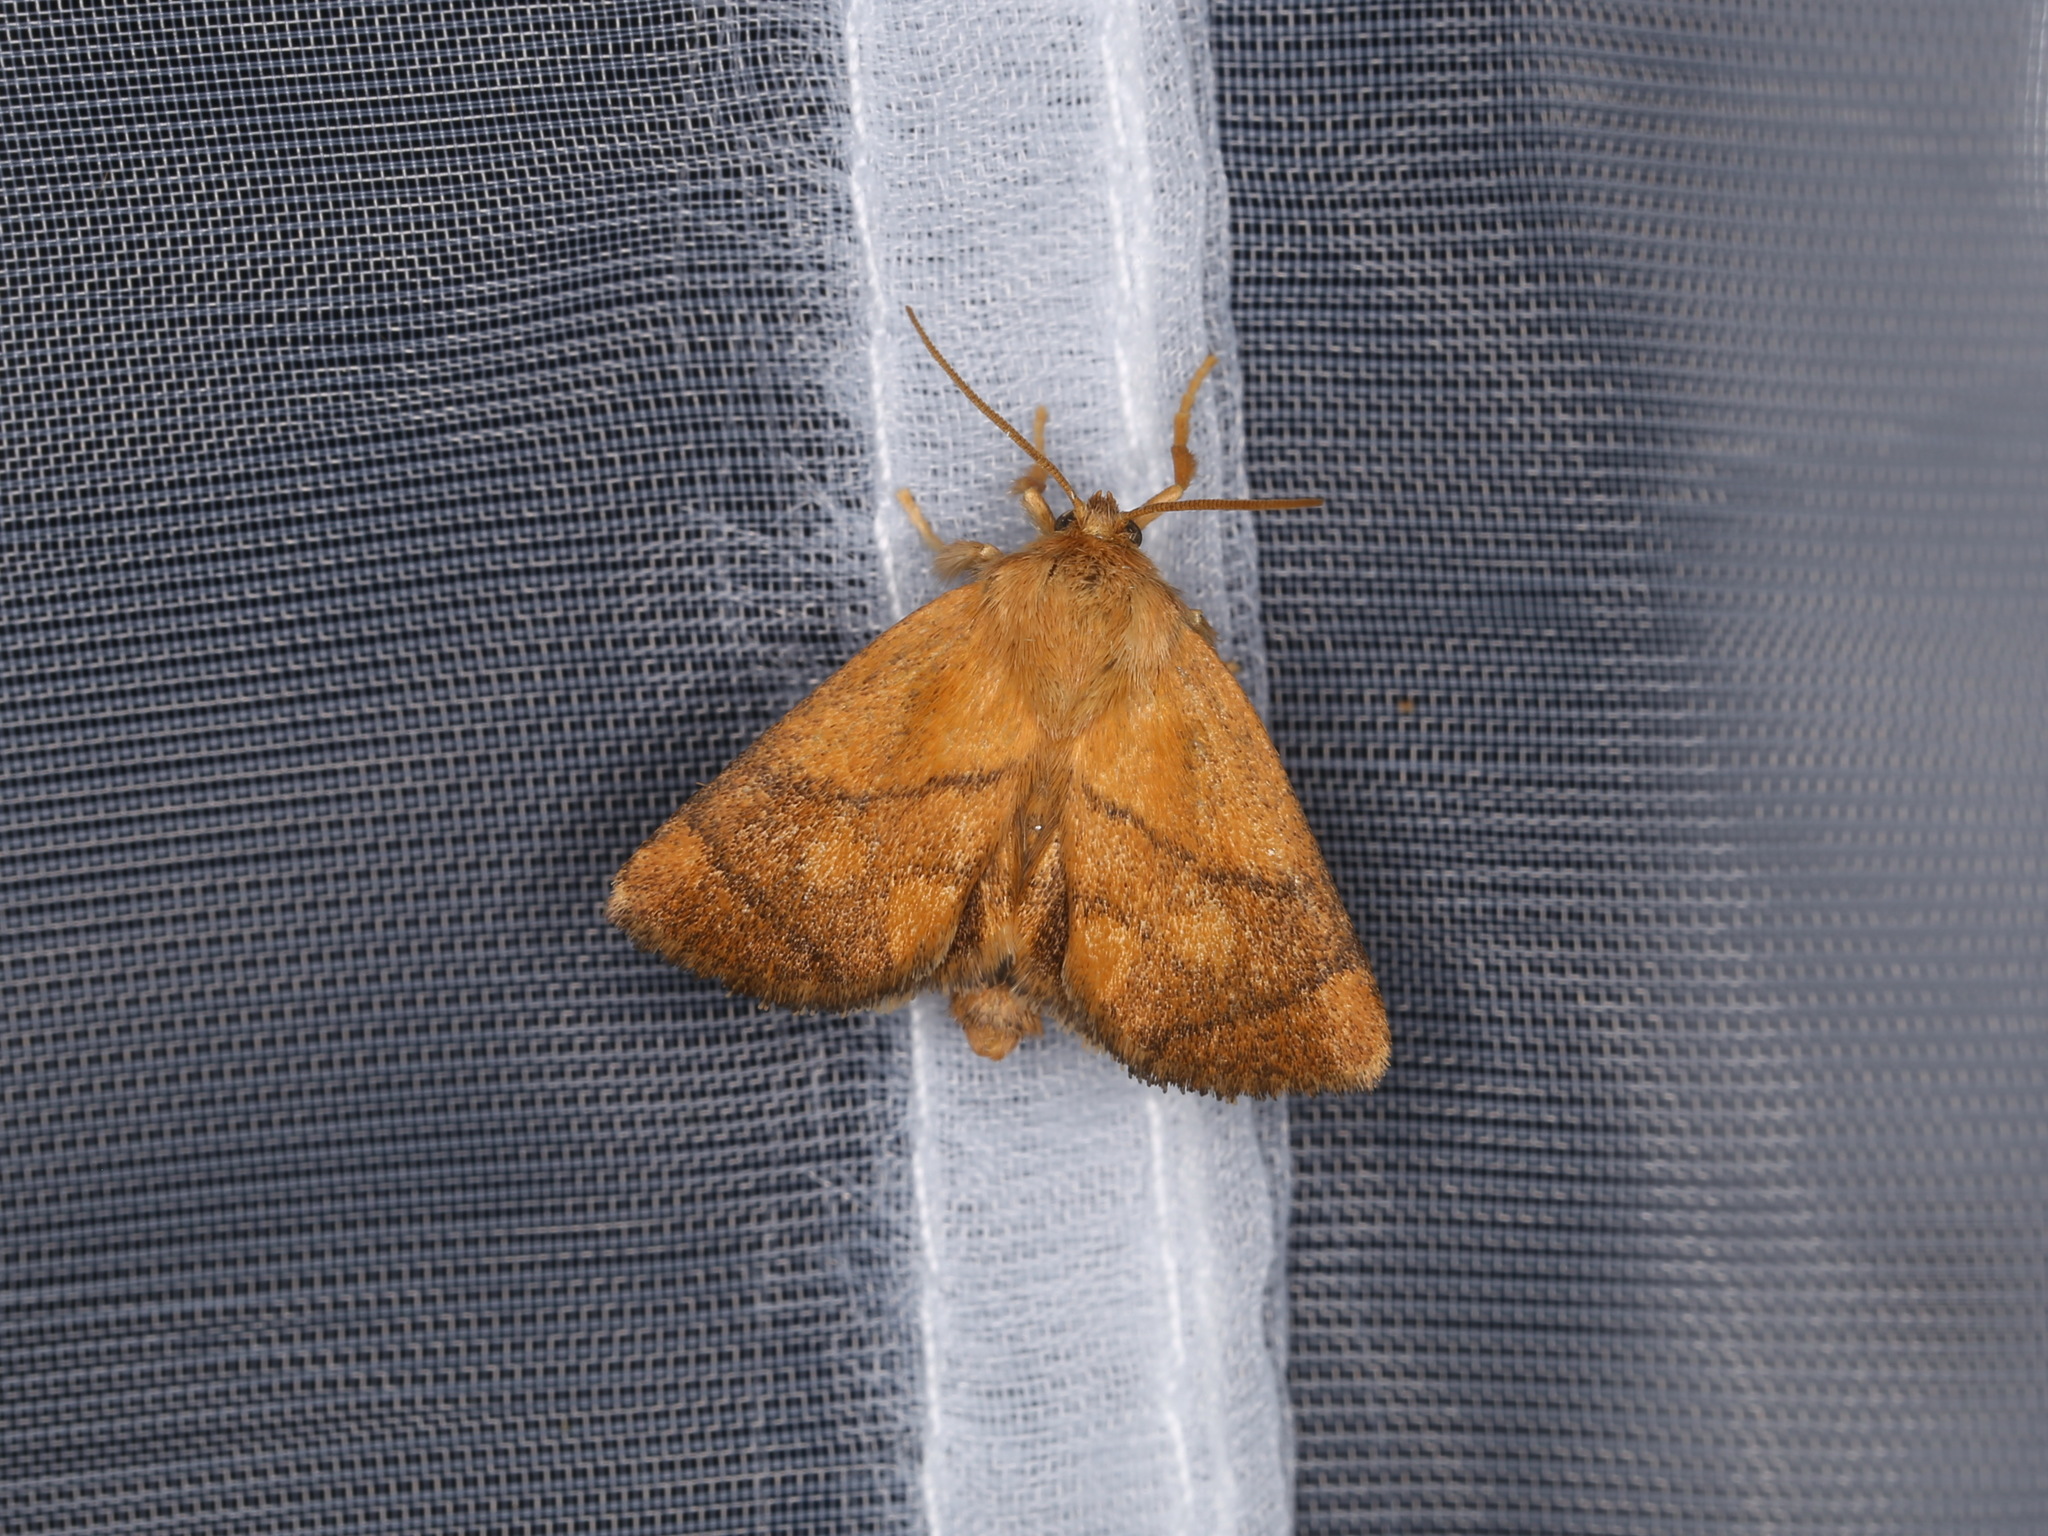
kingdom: Animalia
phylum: Arthropoda
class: Insecta
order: Lepidoptera
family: Limacodidae
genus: Apoda
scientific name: Apoda limacodes
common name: Festoon
